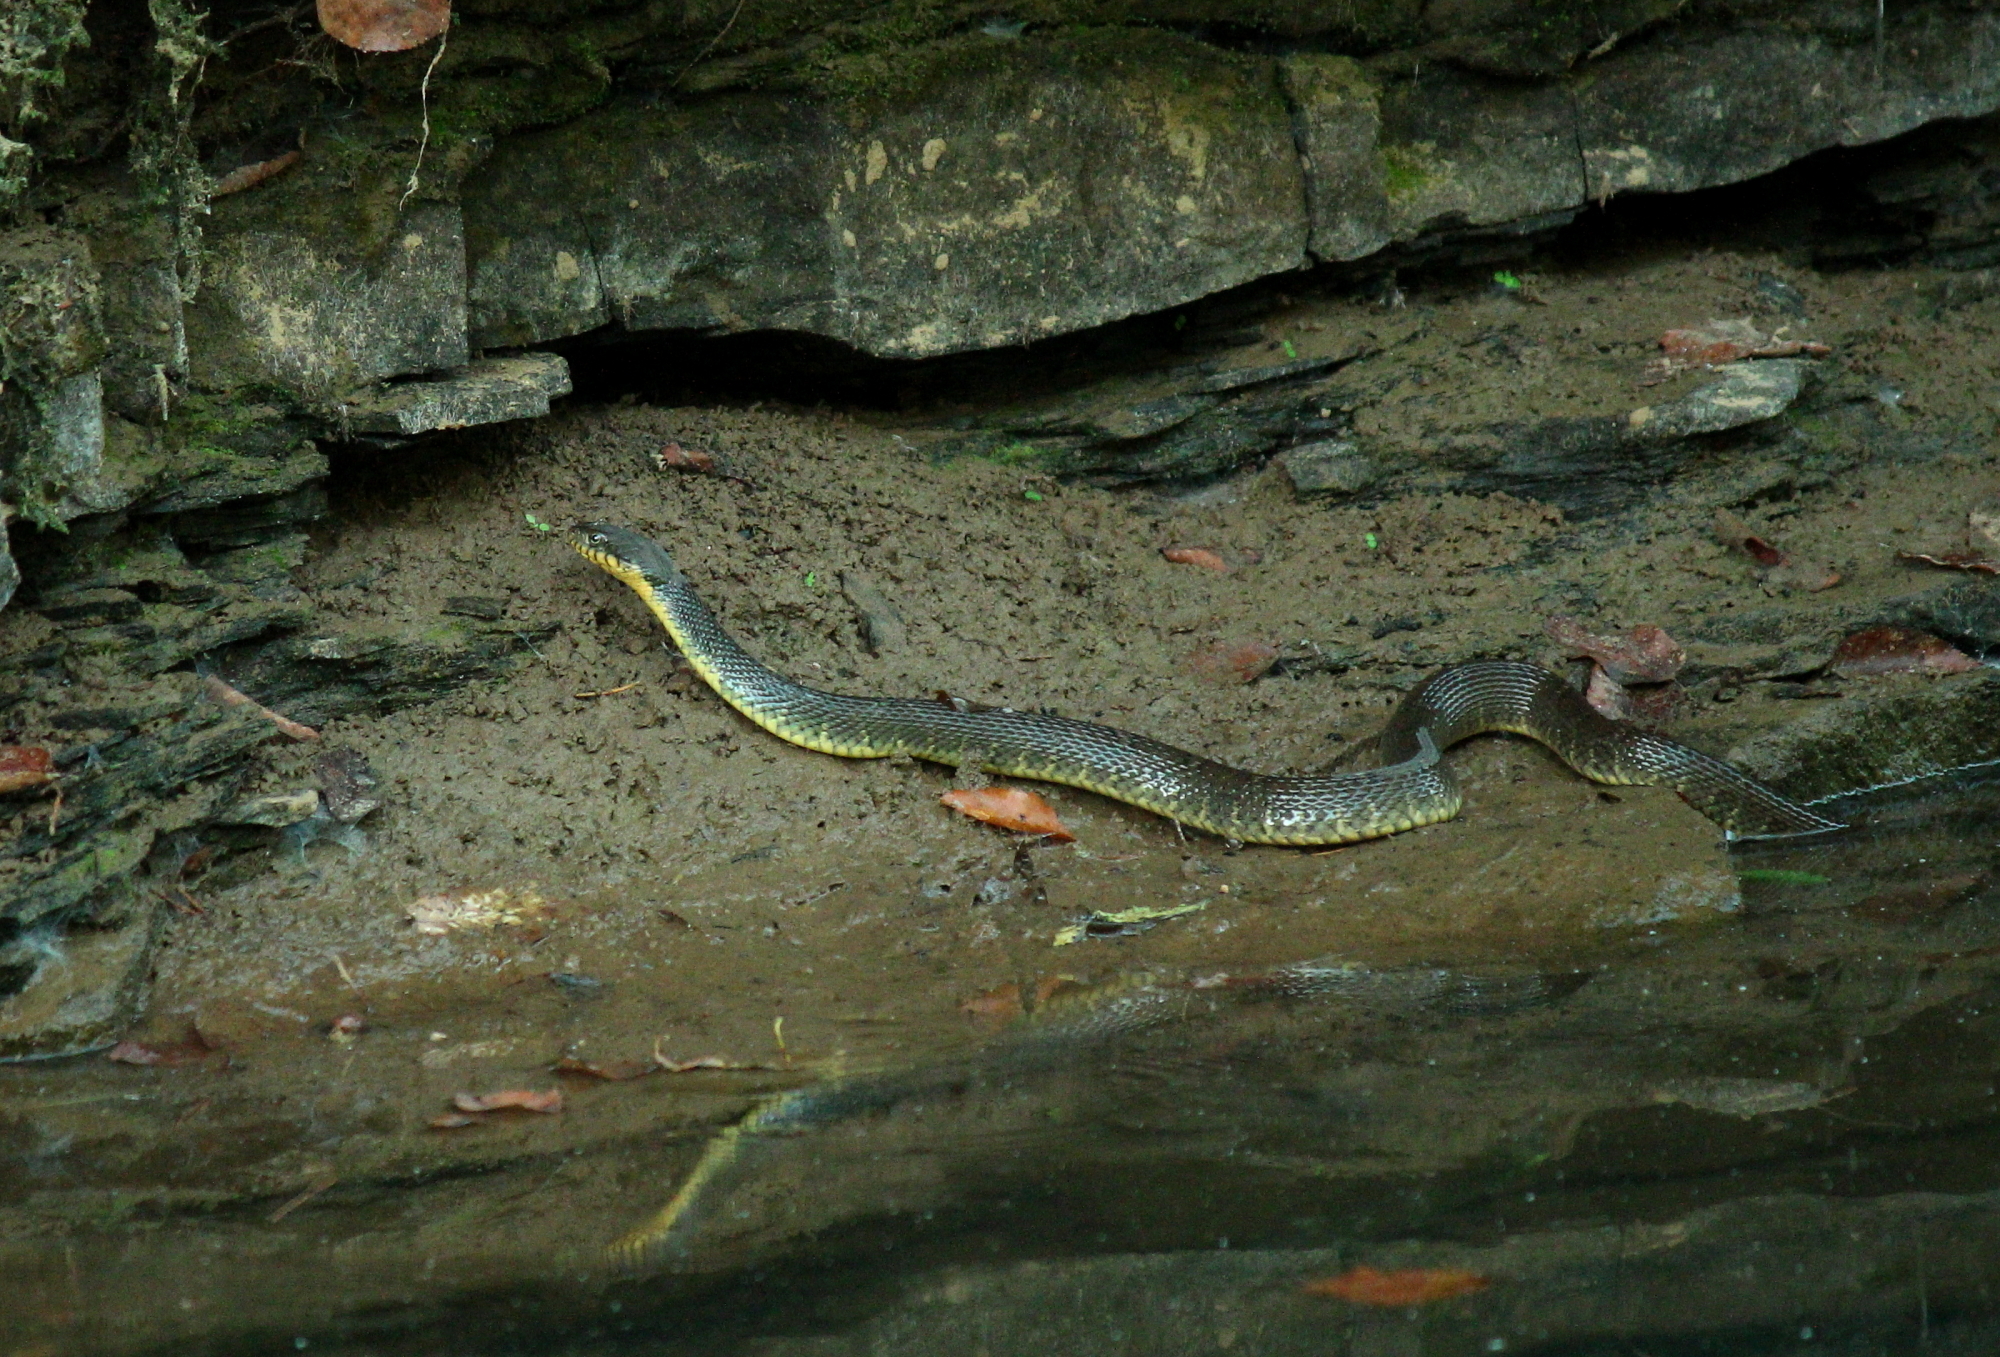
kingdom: Animalia
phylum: Chordata
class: Squamata
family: Colubridae
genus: Nerodia
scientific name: Nerodia erythrogaster
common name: Plainbelly water snake
